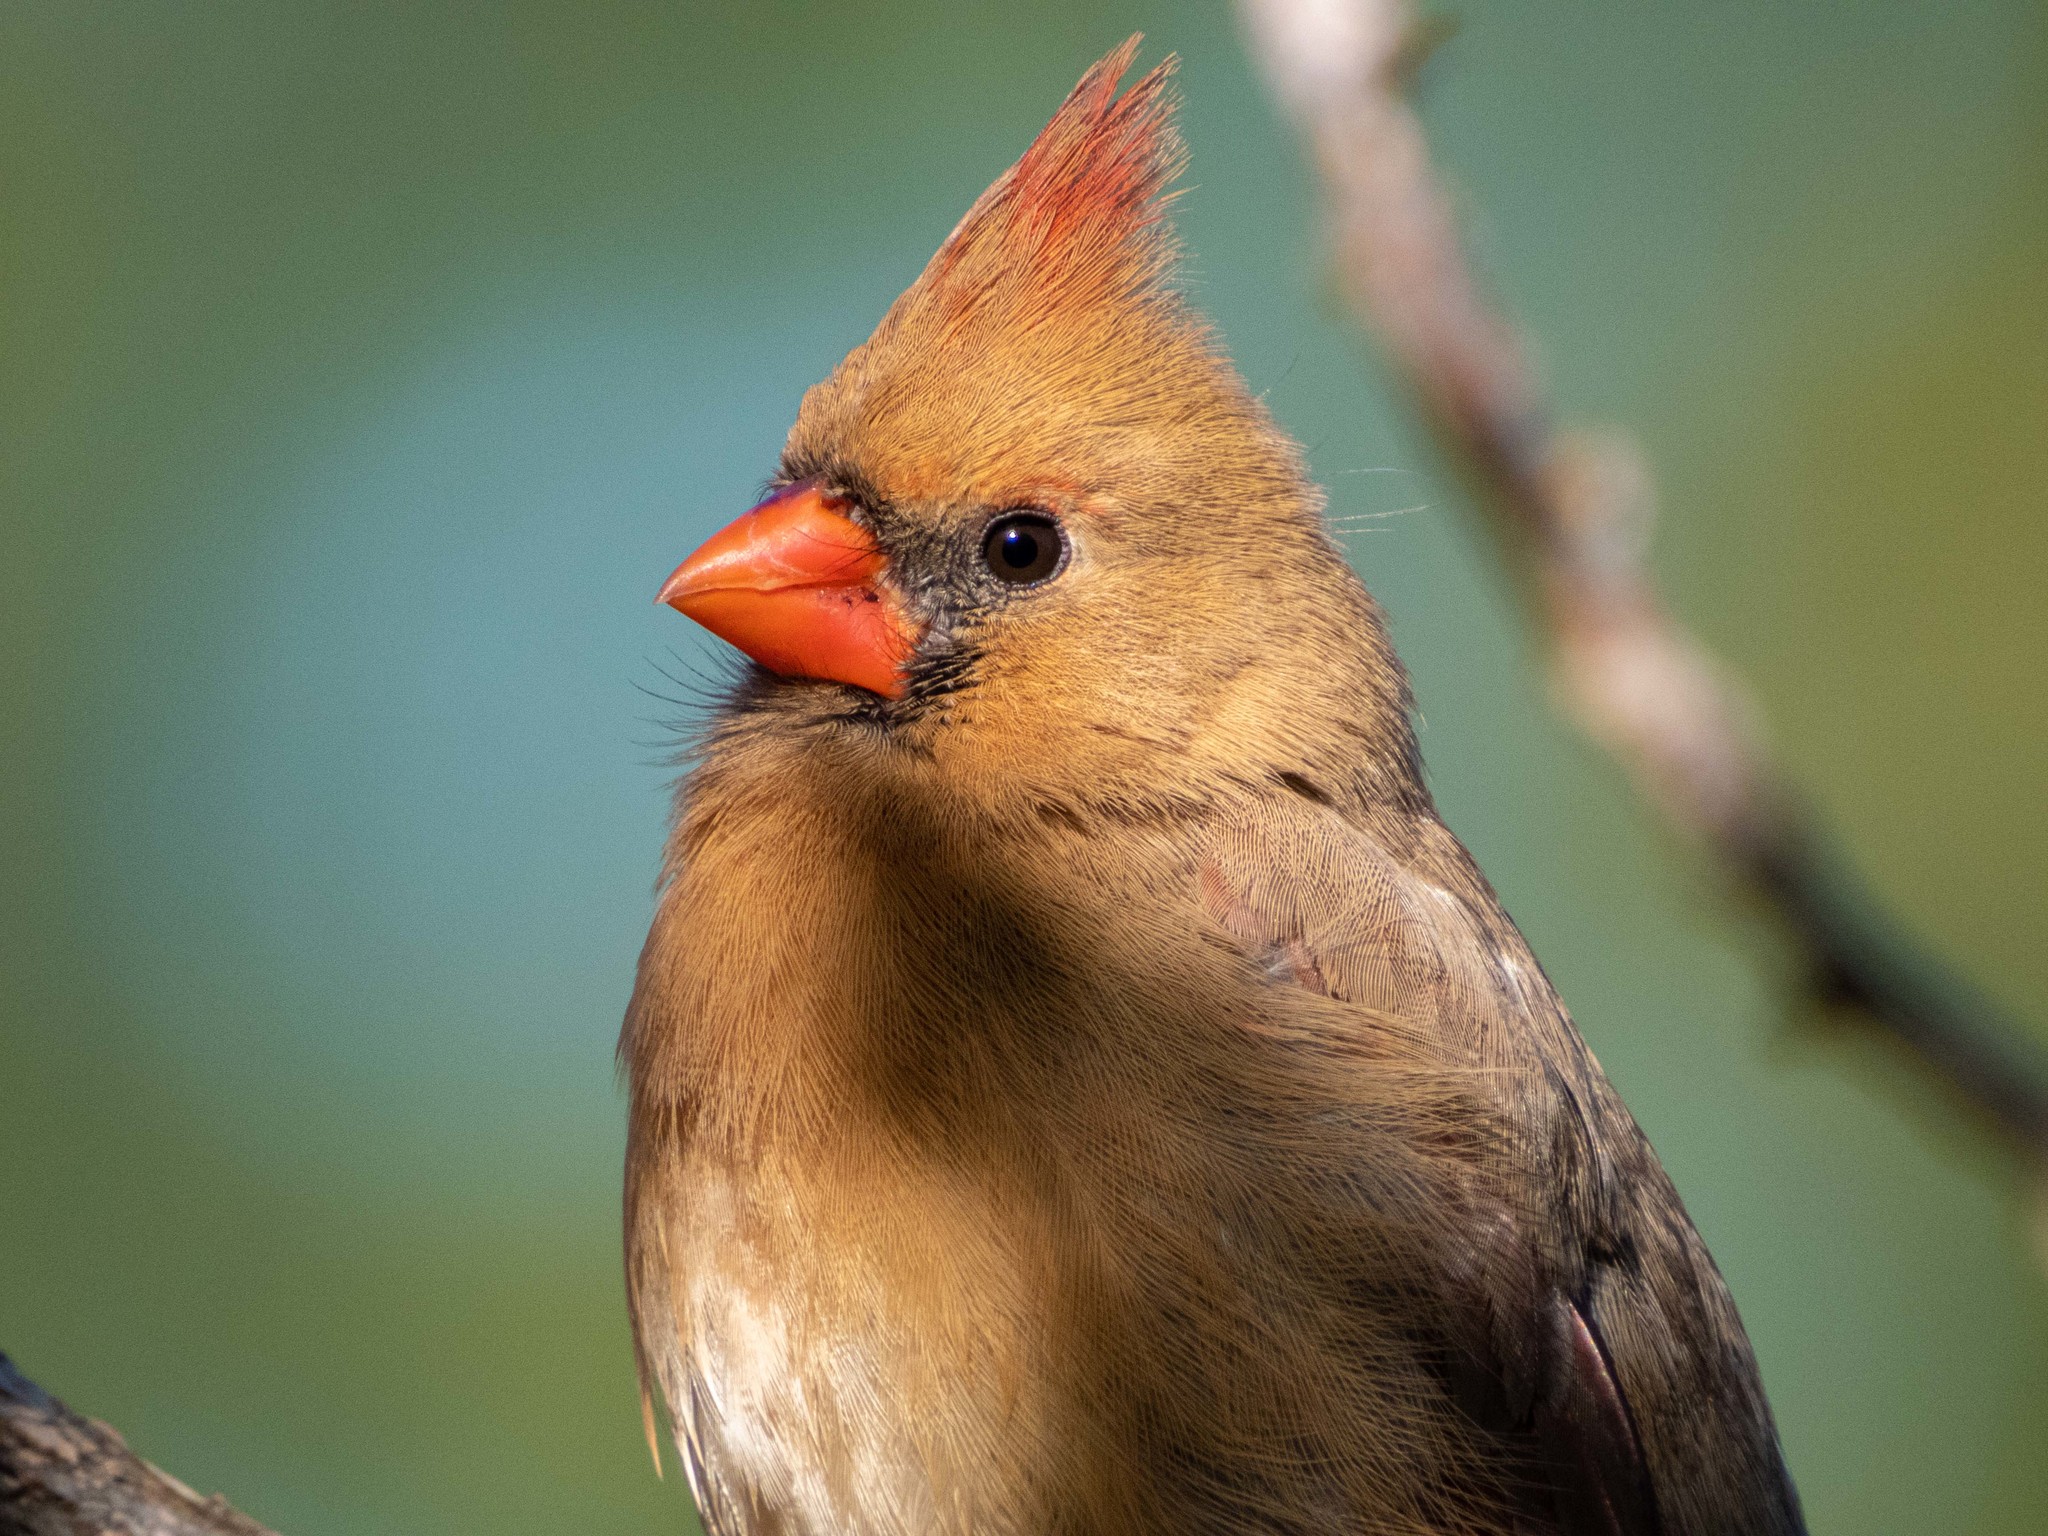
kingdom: Animalia
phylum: Chordata
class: Aves
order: Passeriformes
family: Cardinalidae
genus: Cardinalis
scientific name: Cardinalis cardinalis
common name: Northern cardinal
